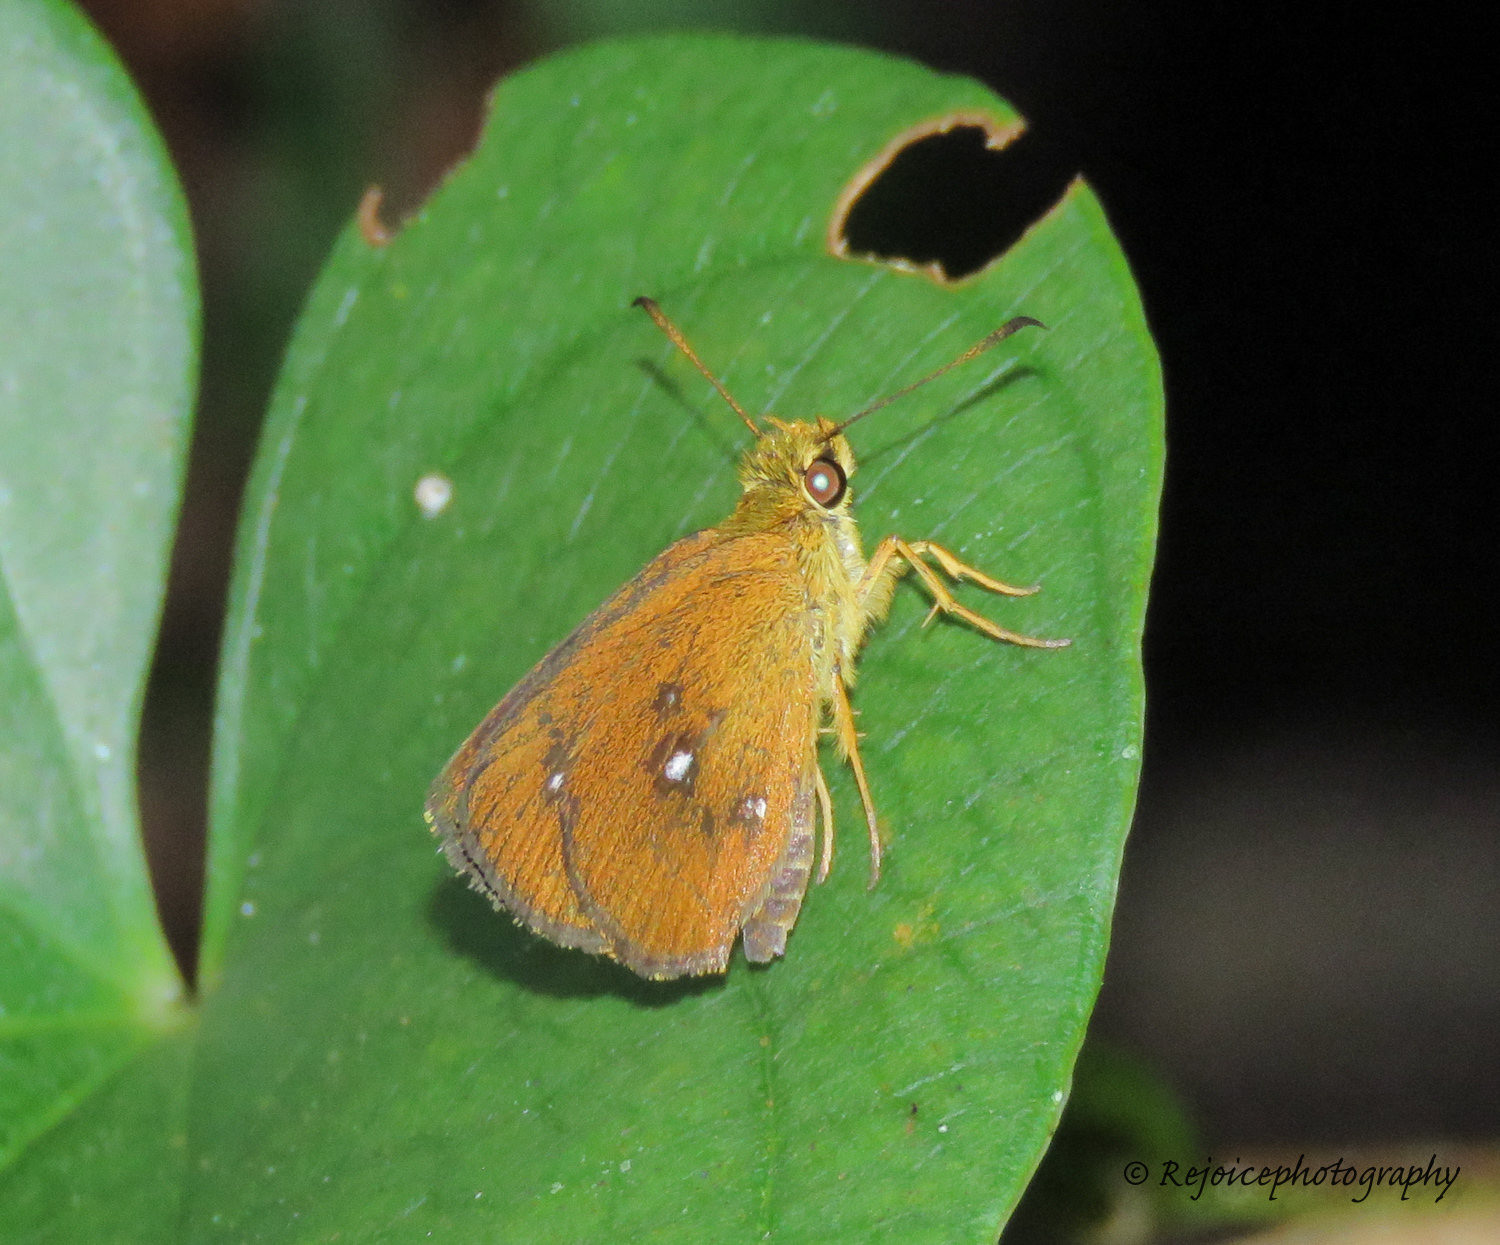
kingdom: Animalia
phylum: Arthropoda
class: Insecta
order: Lepidoptera
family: Hesperiidae
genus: Iambrix
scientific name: Iambrix salsala
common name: Chestnut bob
